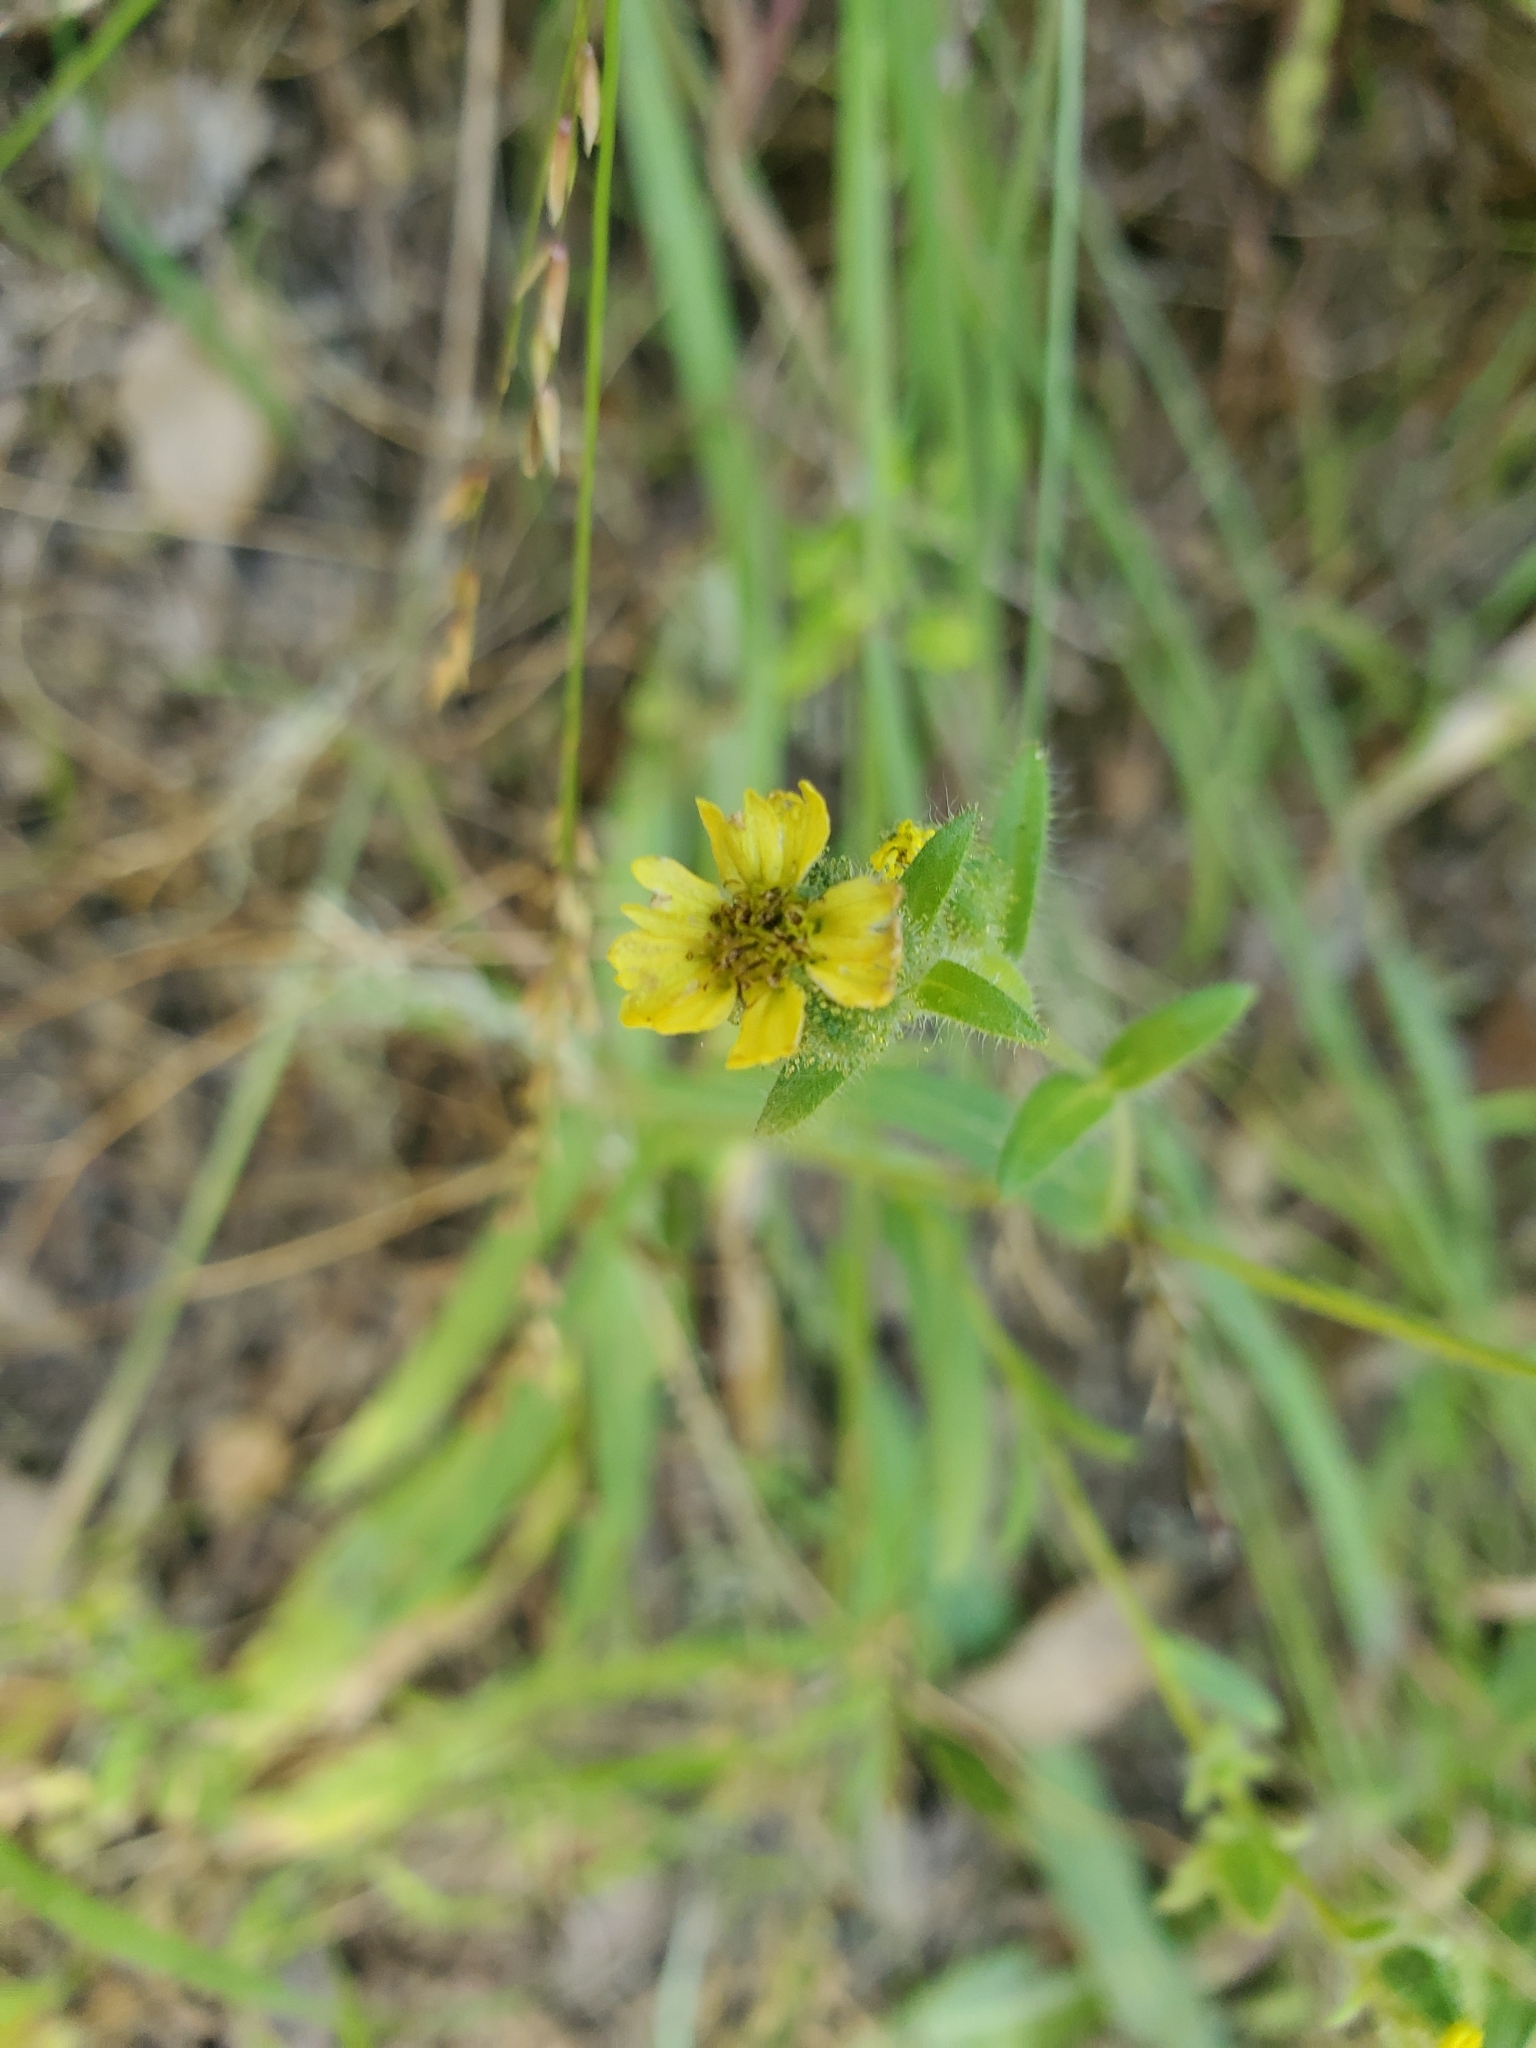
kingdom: Plantae
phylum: Tracheophyta
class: Magnoliopsida
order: Asterales
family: Asteraceae
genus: Madia
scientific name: Madia gracilis
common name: Grassy tarweed
